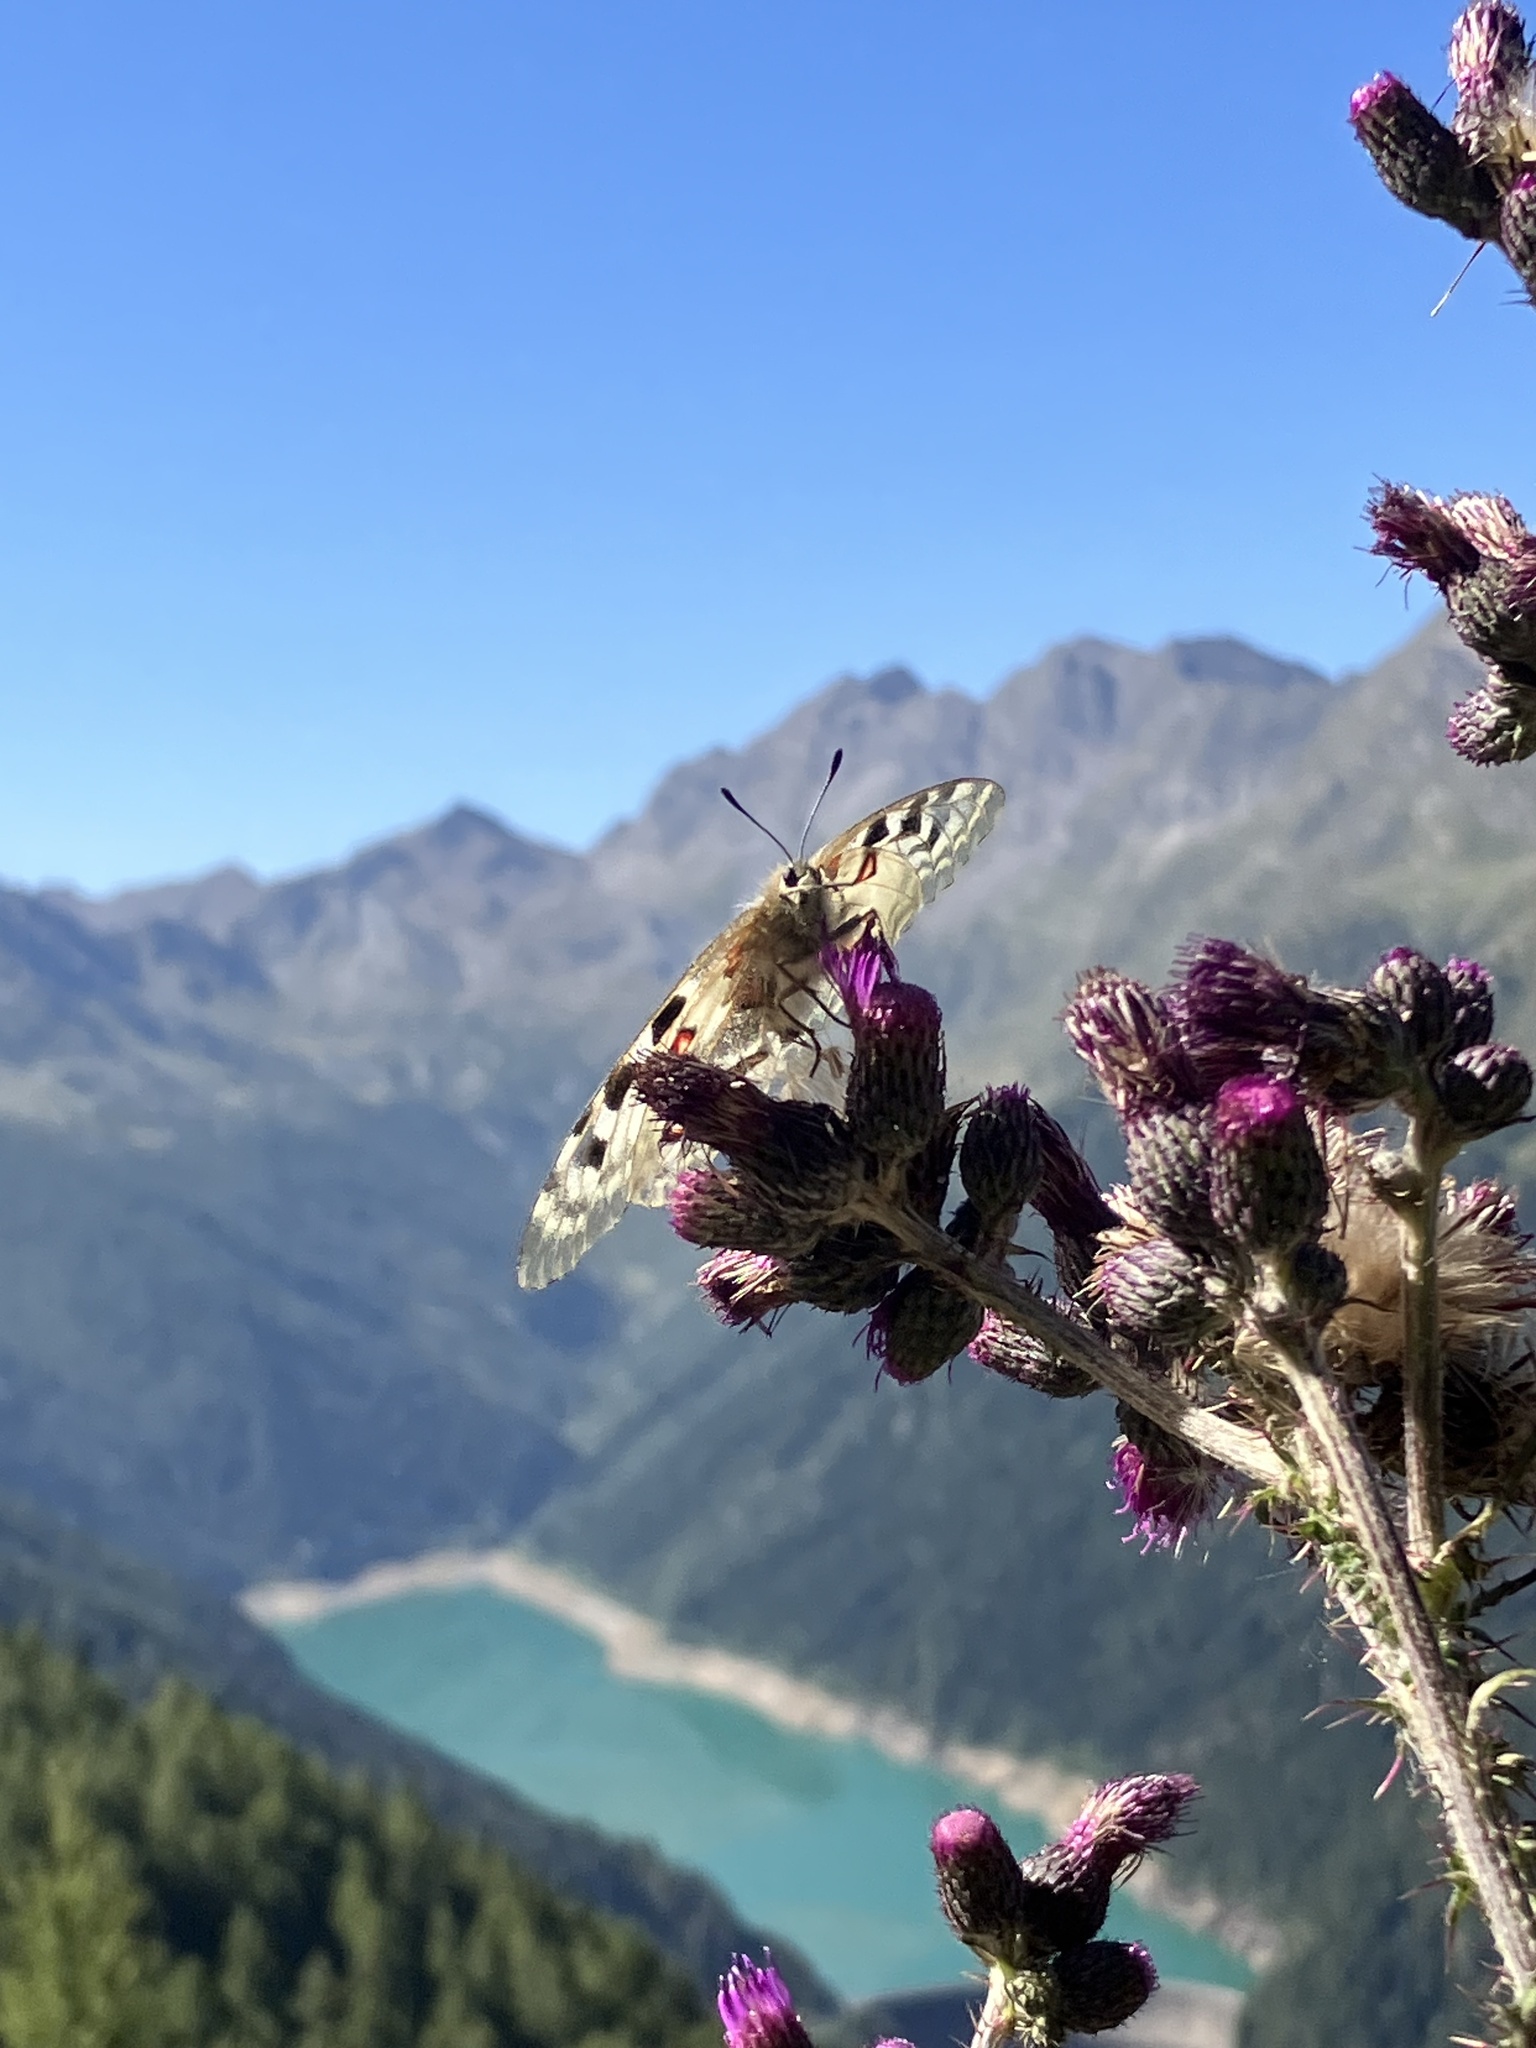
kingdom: Animalia
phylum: Arthropoda
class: Insecta
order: Lepidoptera
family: Papilionidae
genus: Parnassius
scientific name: Parnassius apollo
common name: Apollo
